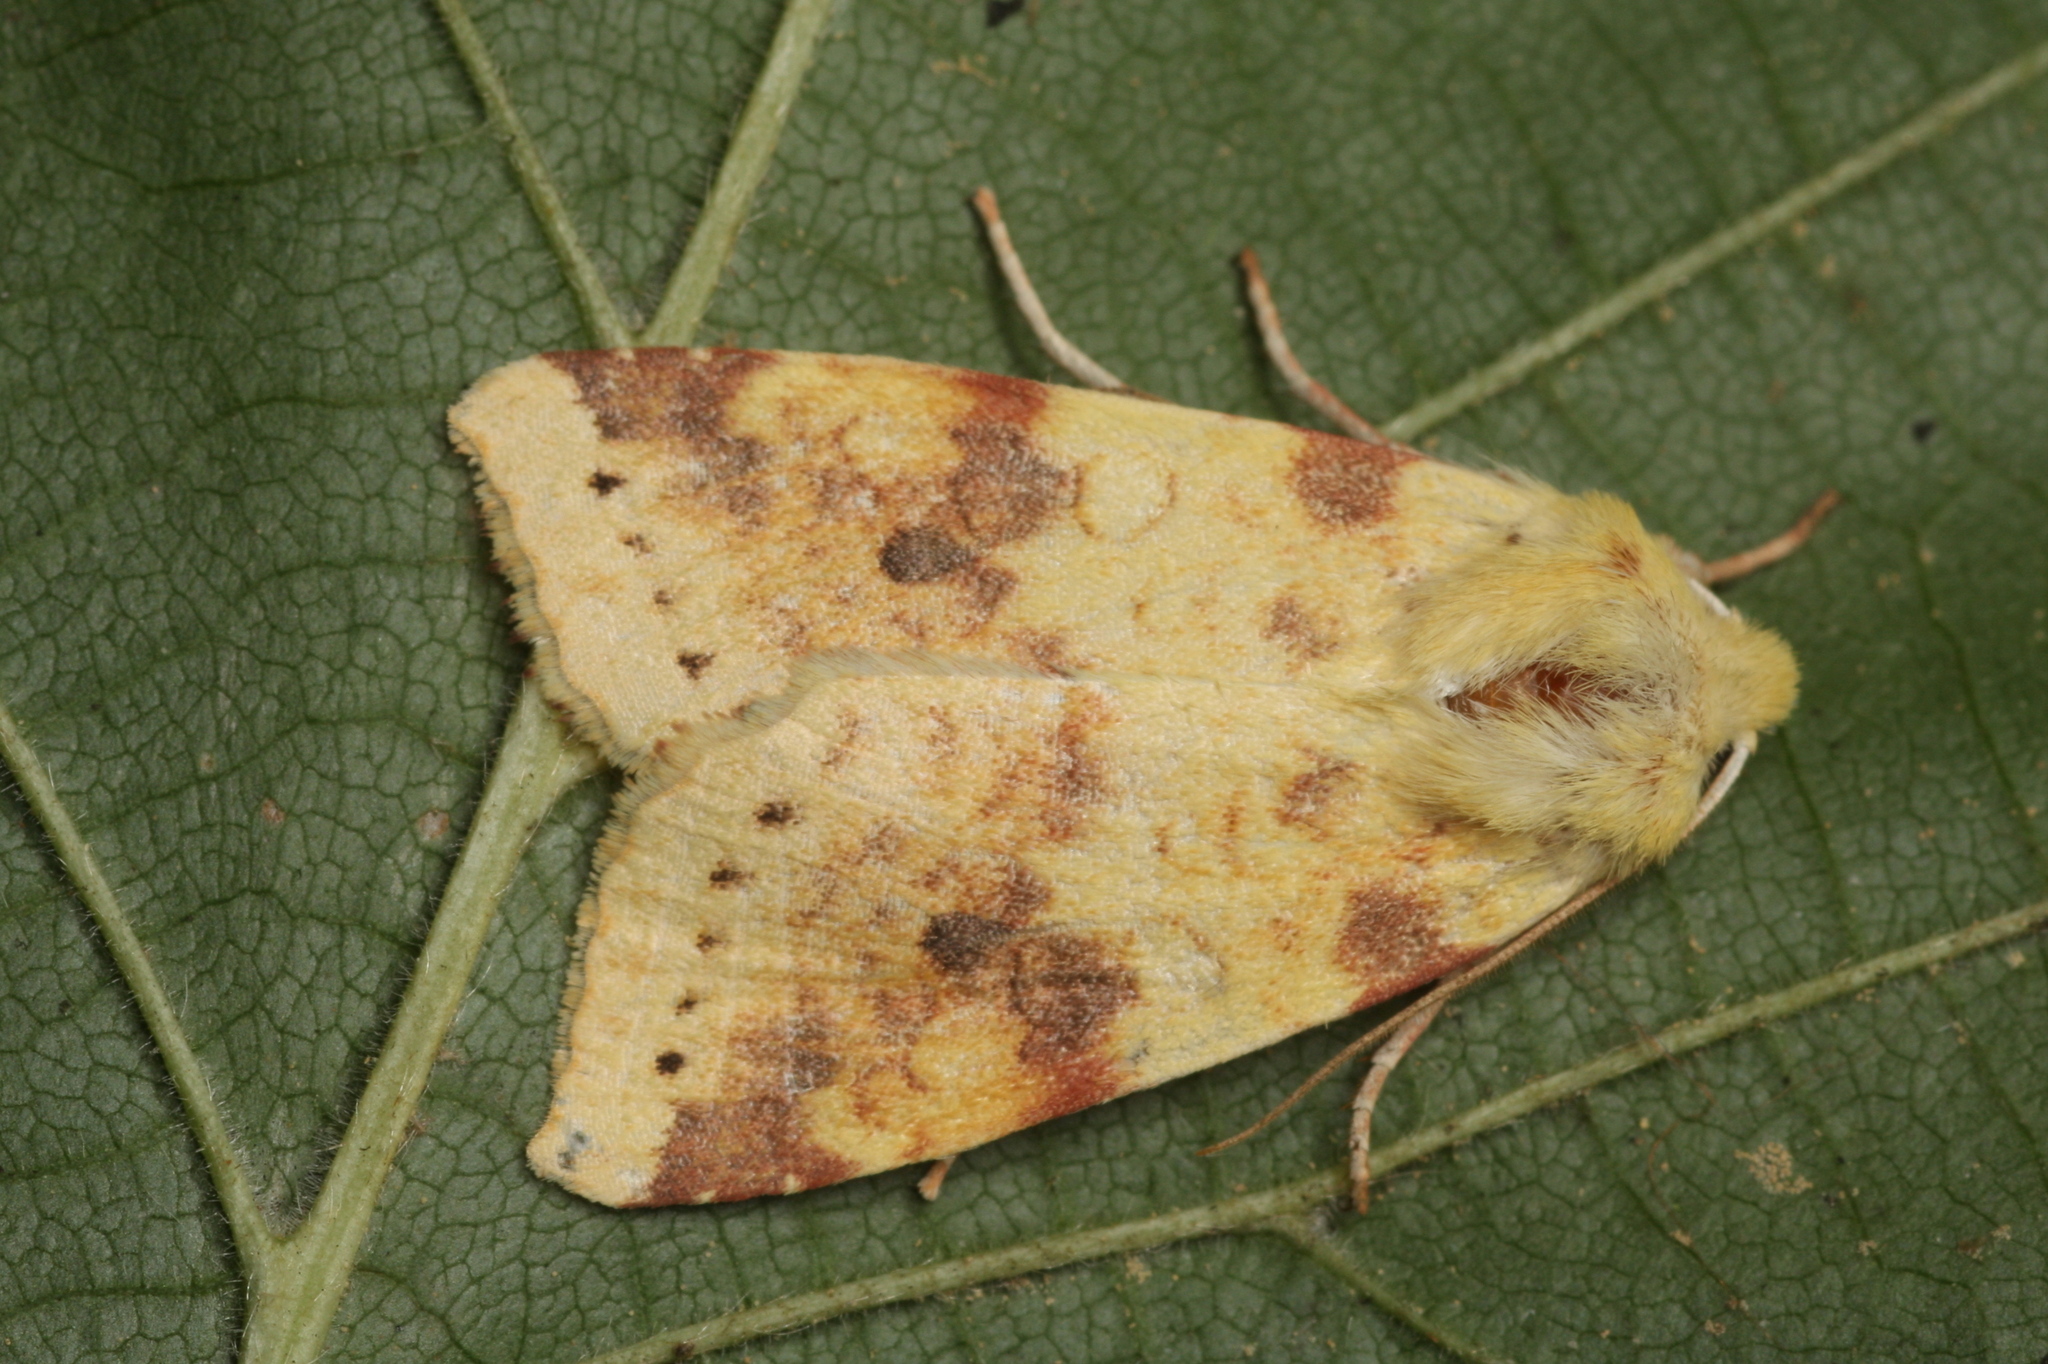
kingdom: Animalia
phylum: Arthropoda
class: Insecta
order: Lepidoptera
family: Noctuidae
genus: Xanthia
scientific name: Xanthia icteritia
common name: The sallow
